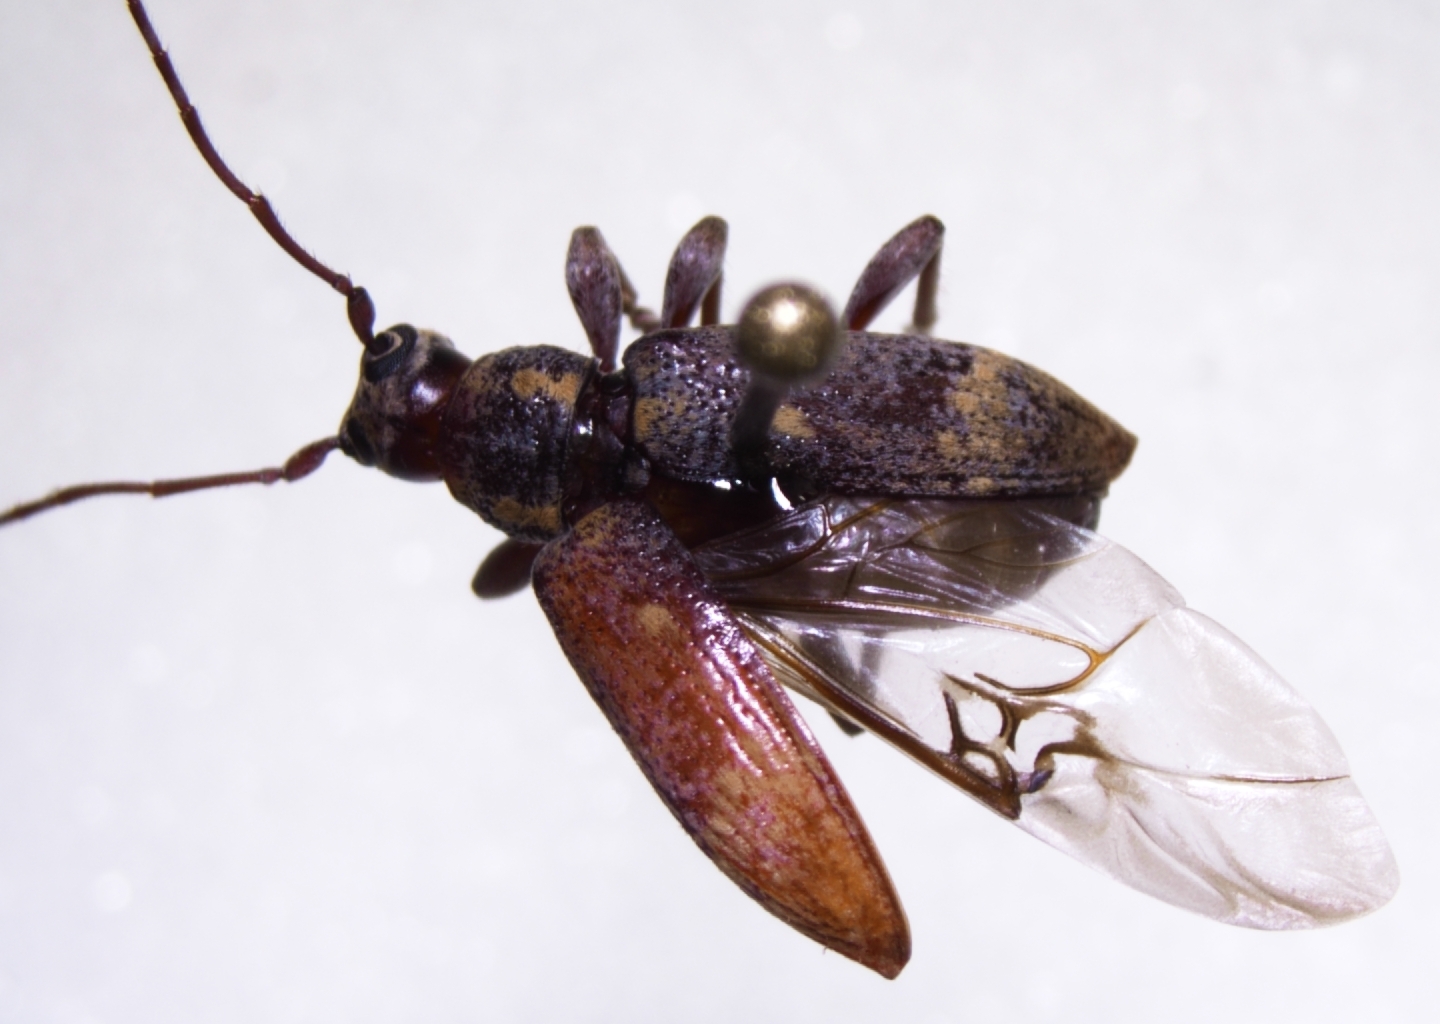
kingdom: Animalia
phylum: Arthropoda
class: Insecta
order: Coleoptera
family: Cerambycidae
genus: Oopsis
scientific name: Oopsis nutator
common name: Oopsis long-horned beetle
